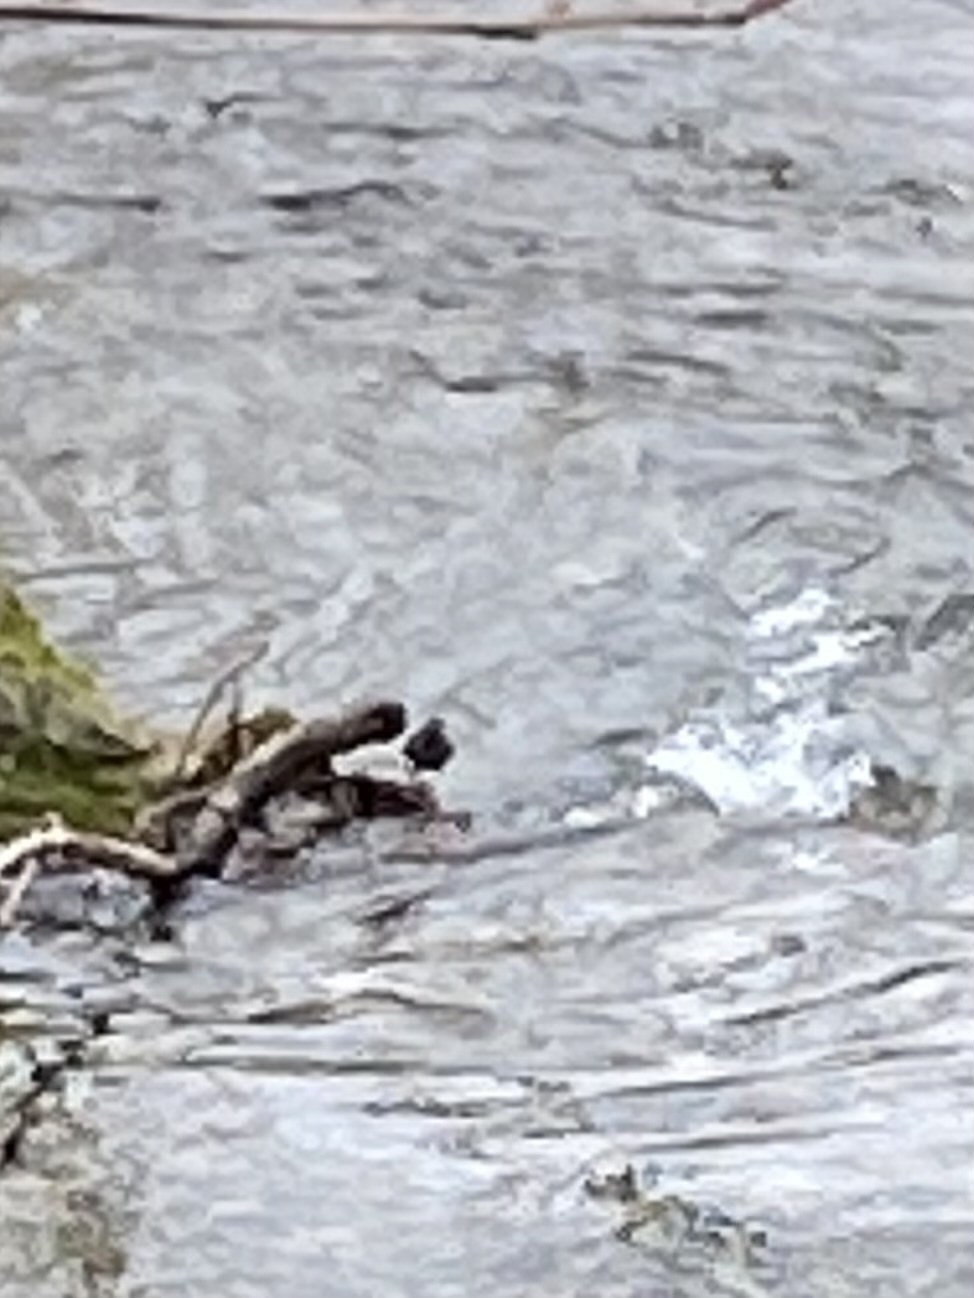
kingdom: Animalia
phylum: Chordata
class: Aves
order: Passeriformes
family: Cinclidae
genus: Cinclus
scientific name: Cinclus mexicanus
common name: American dipper
